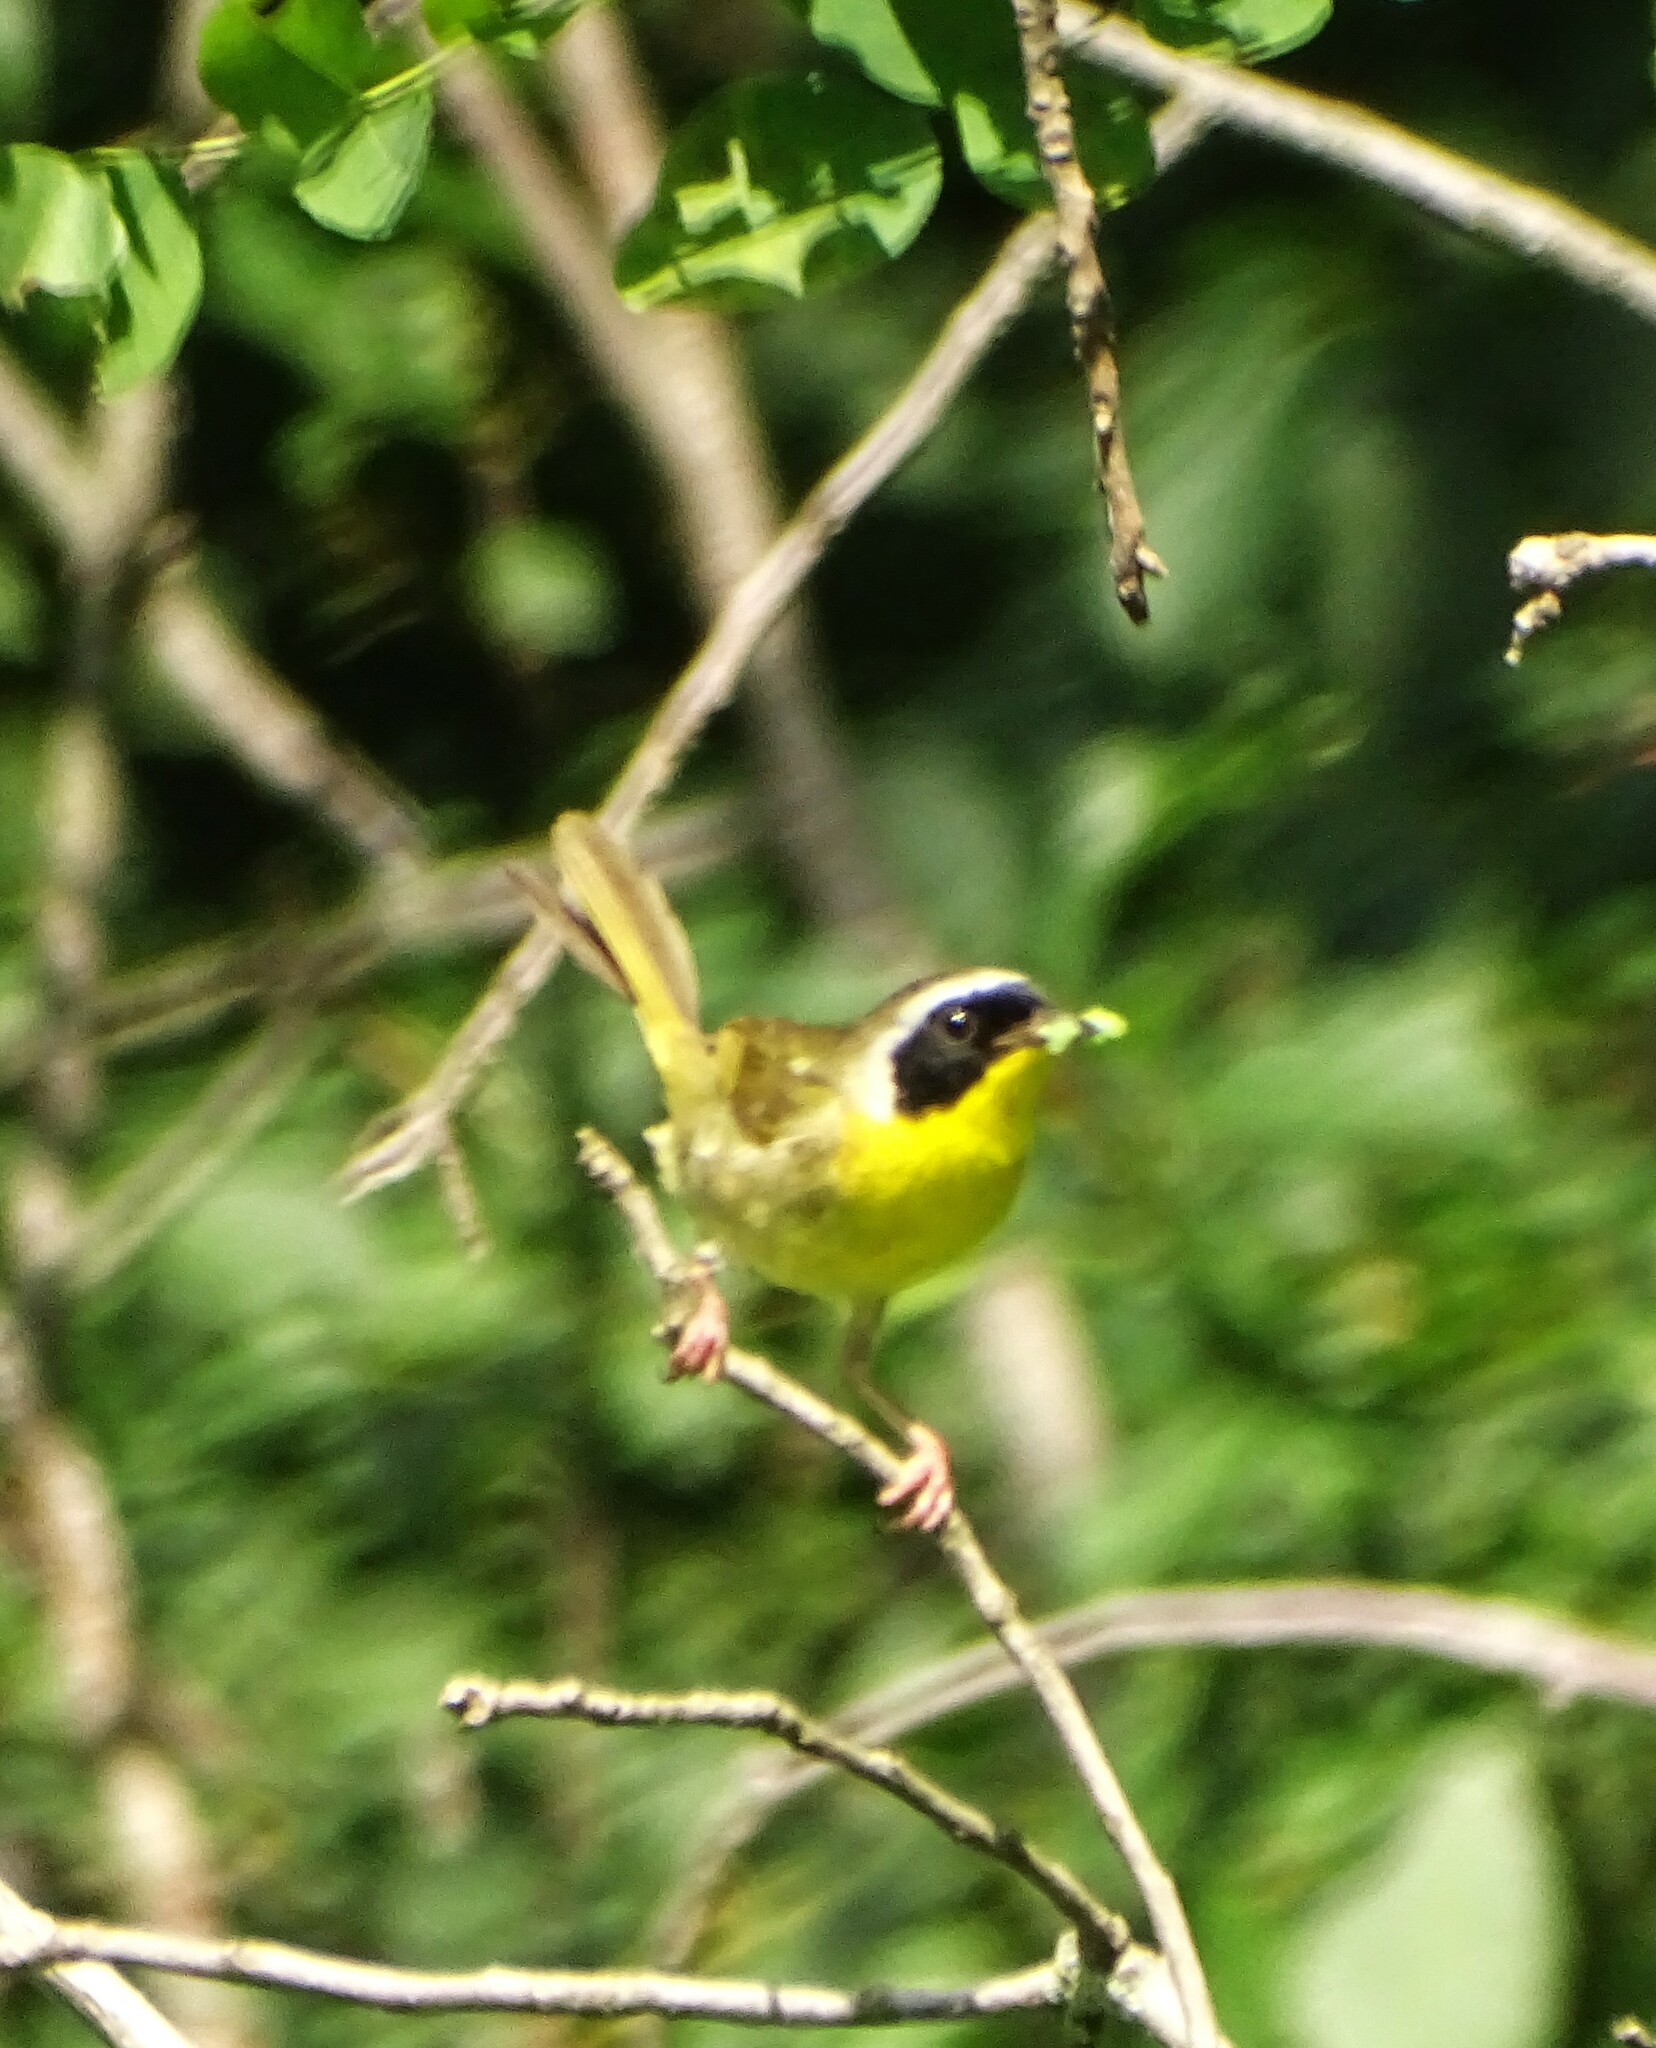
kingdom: Animalia
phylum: Chordata
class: Aves
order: Passeriformes
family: Parulidae
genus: Geothlypis
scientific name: Geothlypis trichas
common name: Common yellowthroat
